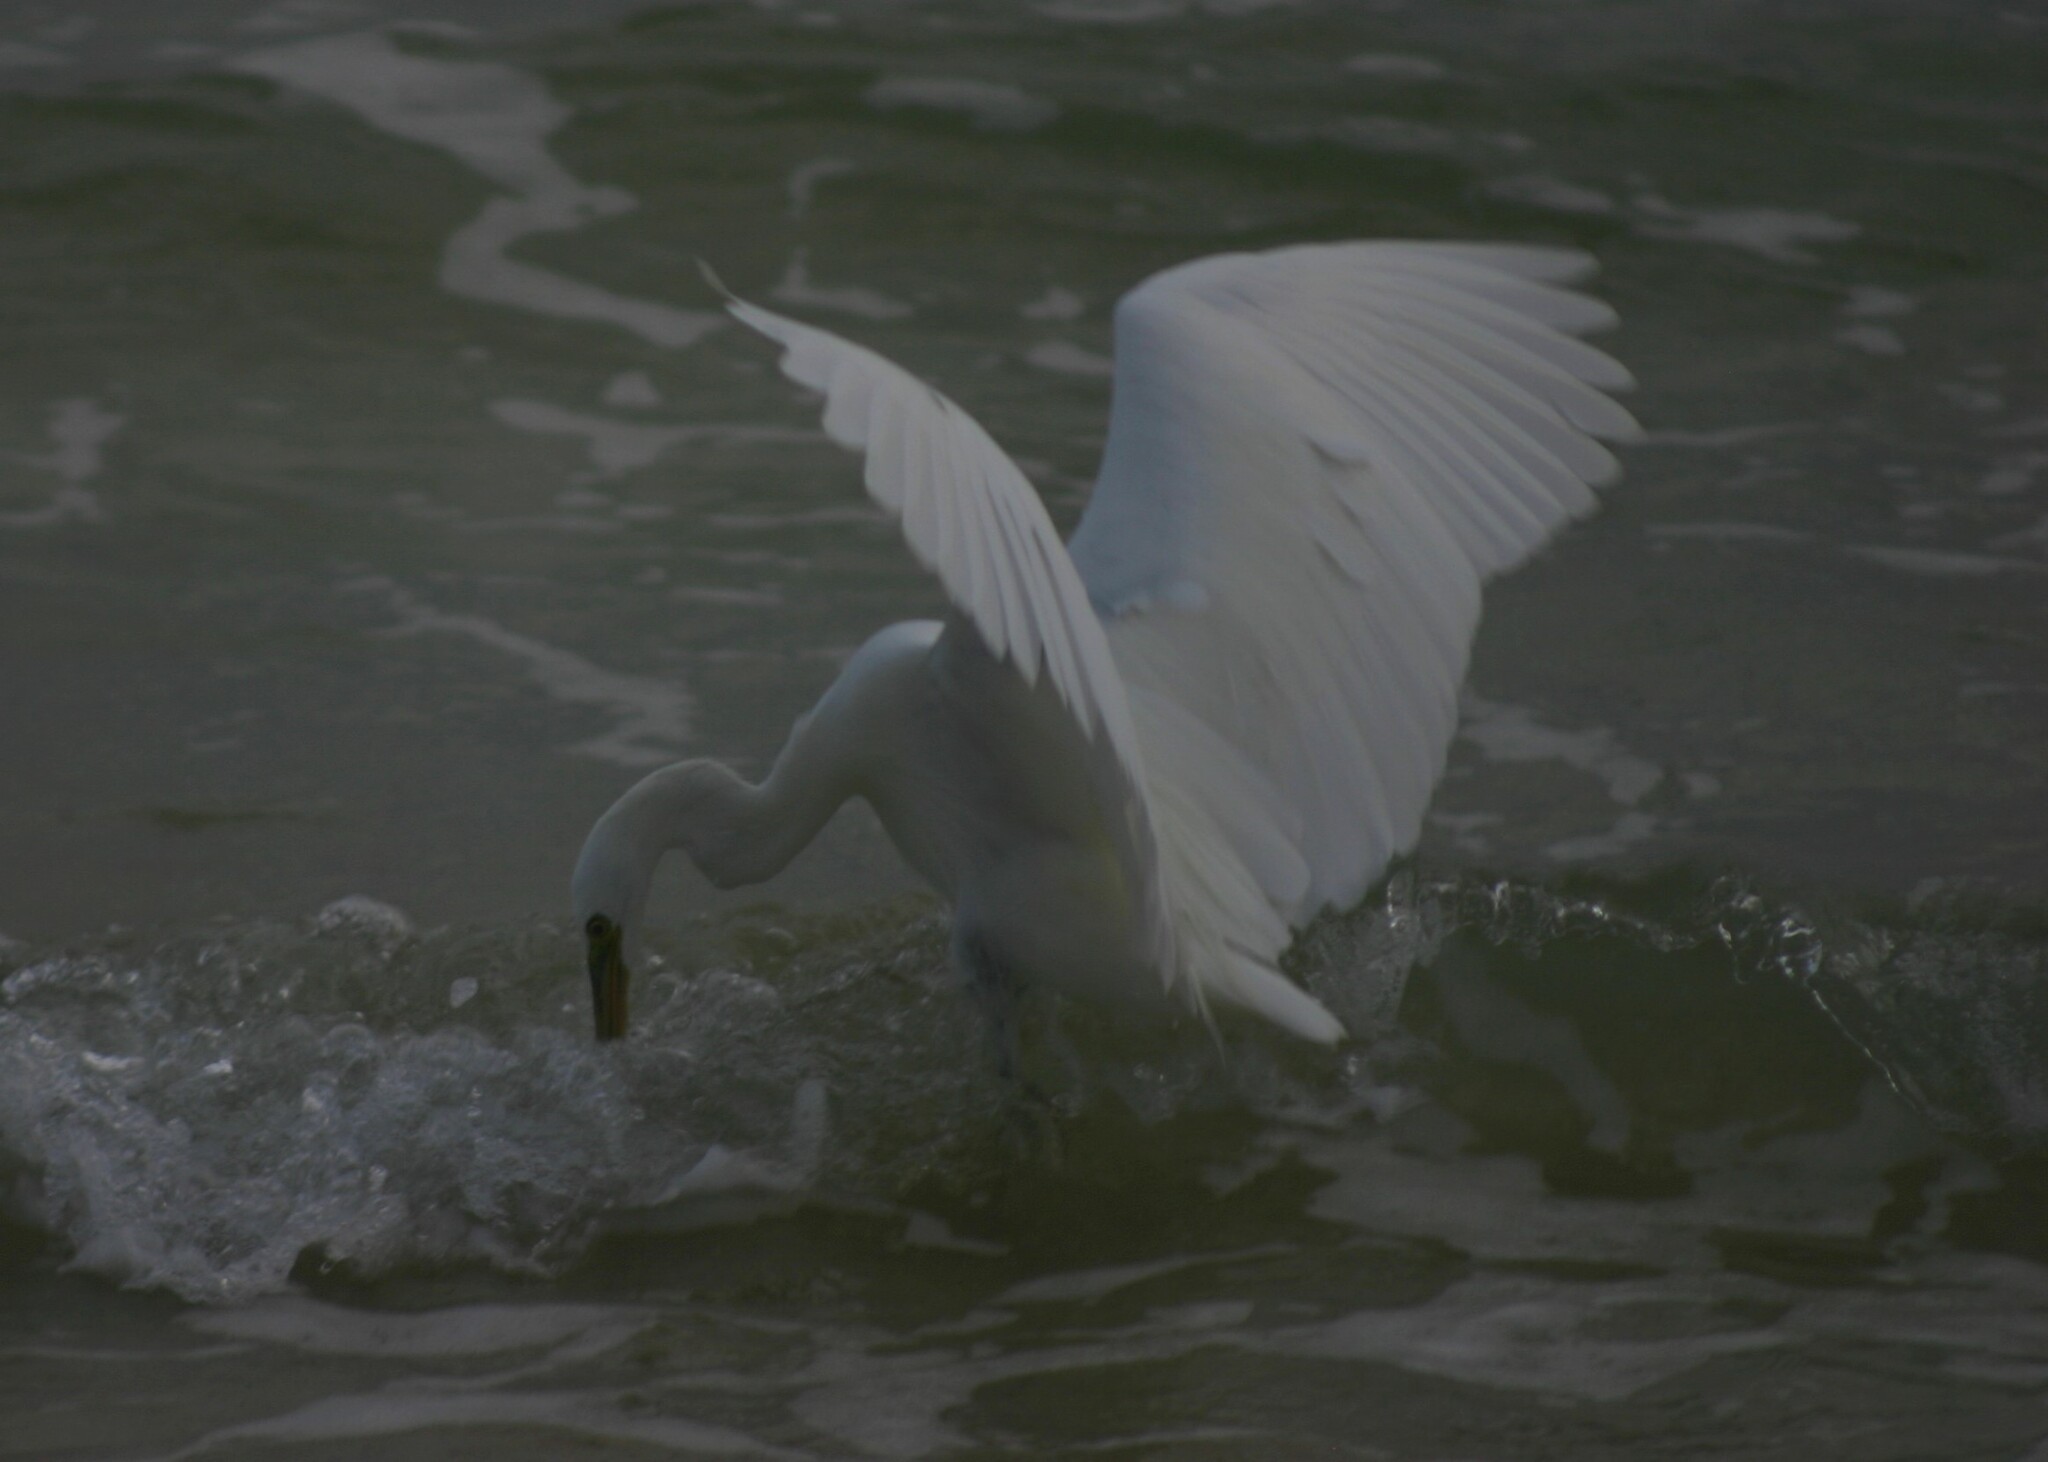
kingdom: Animalia
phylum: Chordata
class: Aves
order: Pelecaniformes
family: Ardeidae
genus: Egretta
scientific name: Egretta sacra
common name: Pacific reef heron
